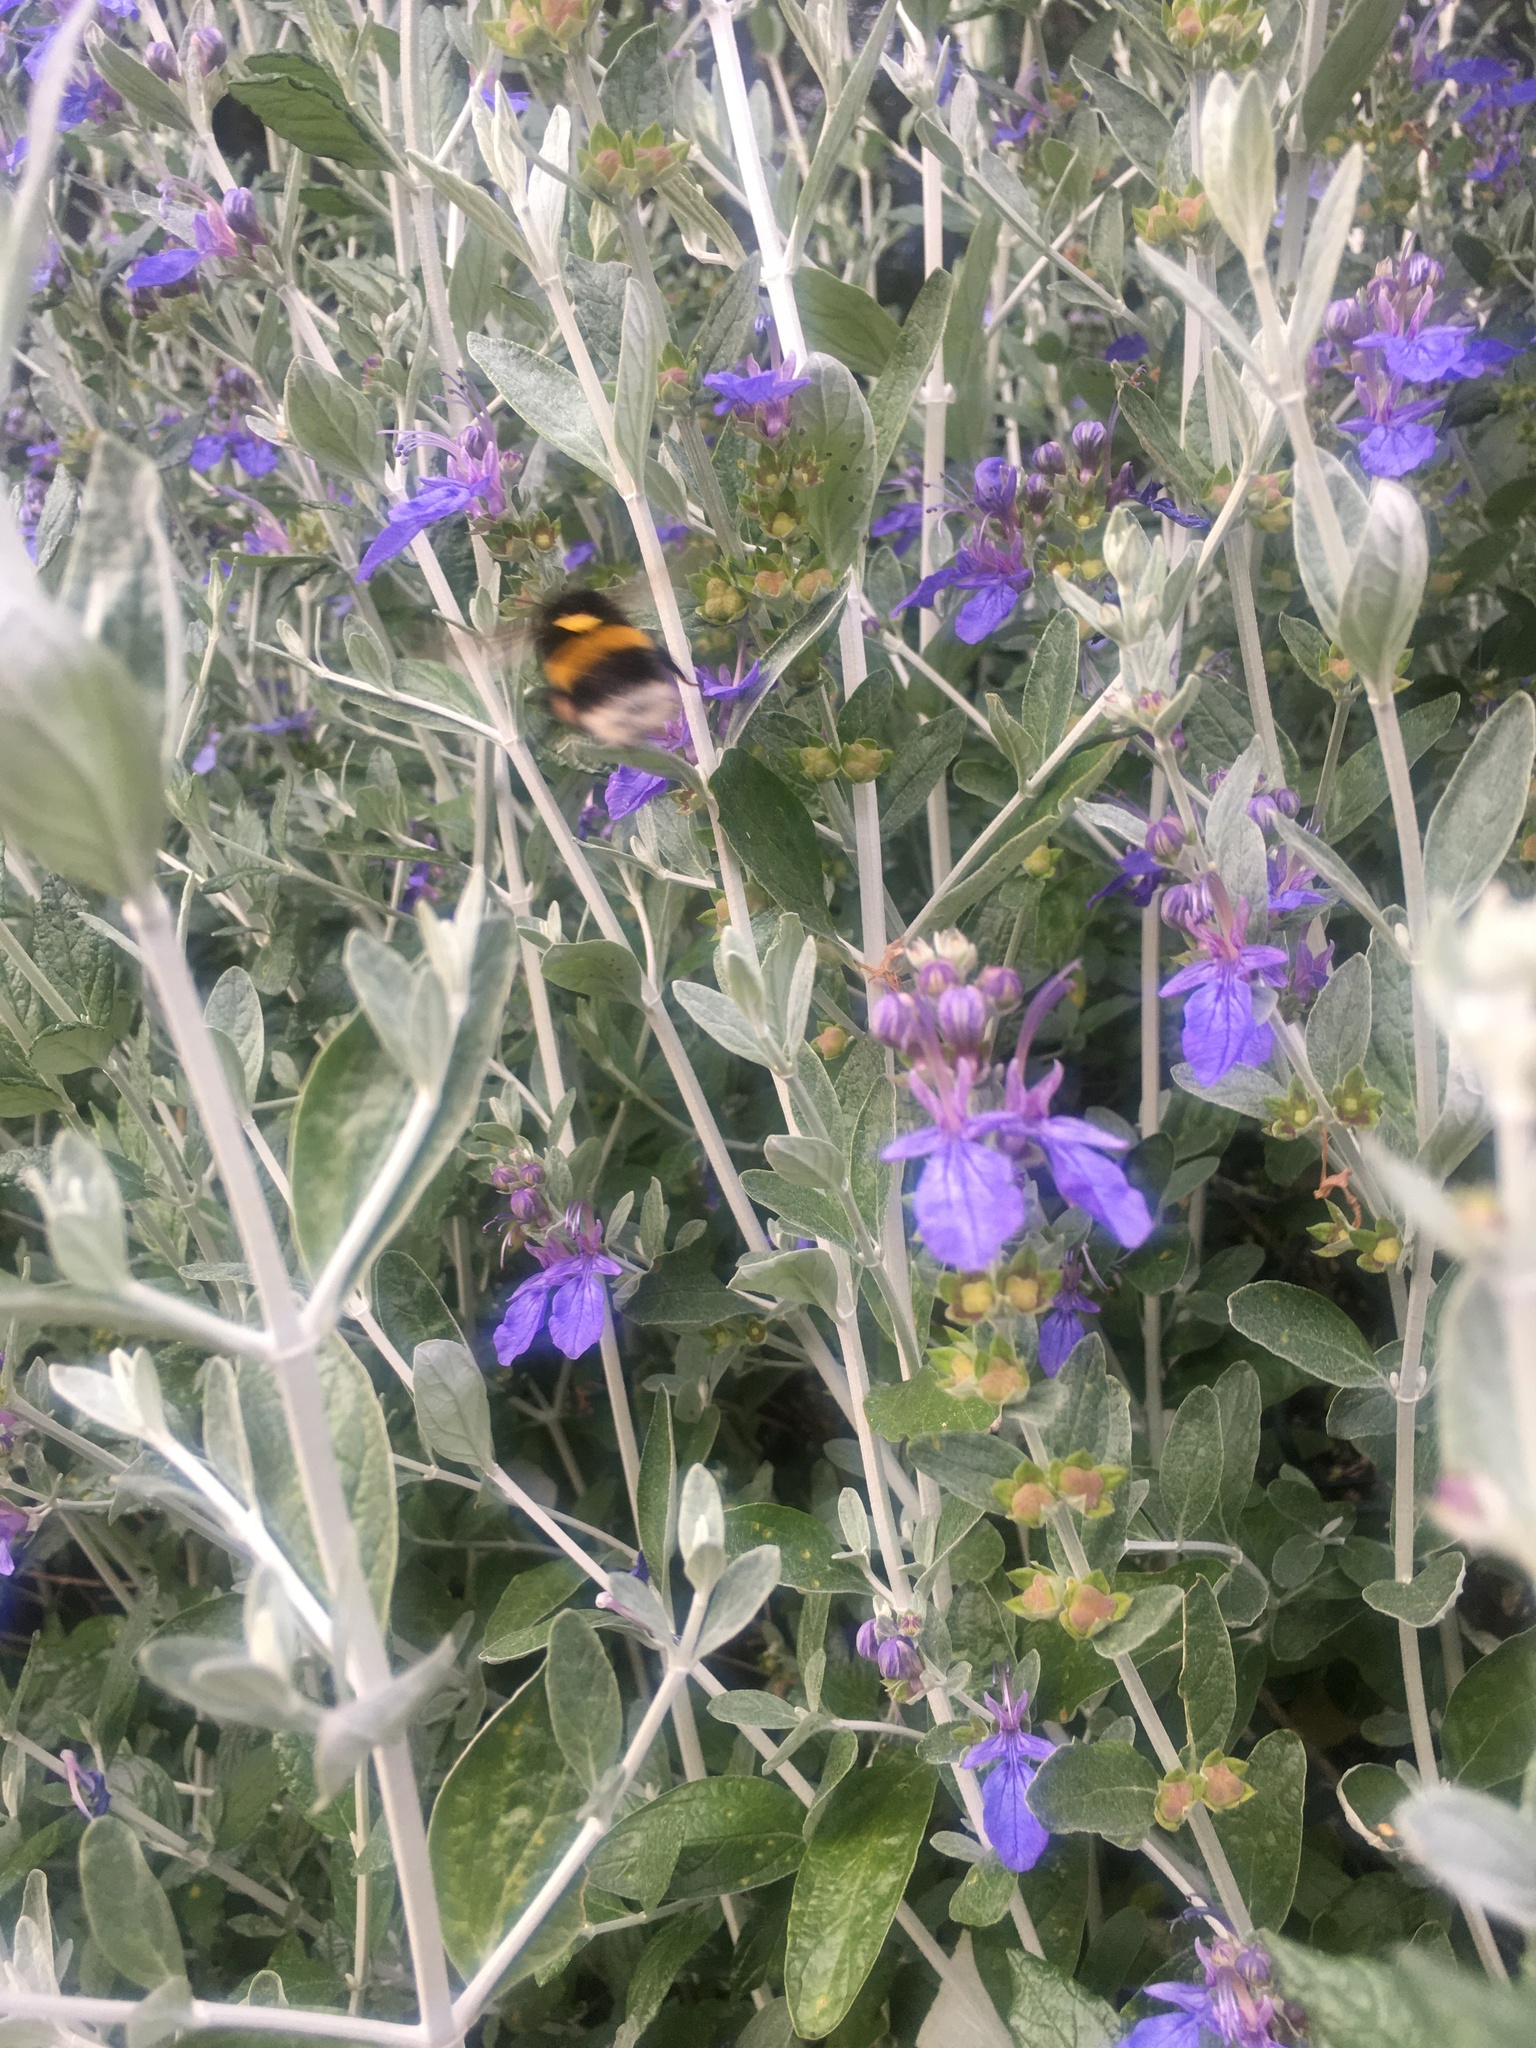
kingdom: Animalia
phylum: Arthropoda
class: Insecta
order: Hymenoptera
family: Apidae
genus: Bombus
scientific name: Bombus terrestris
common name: Buff-tailed bumblebee
